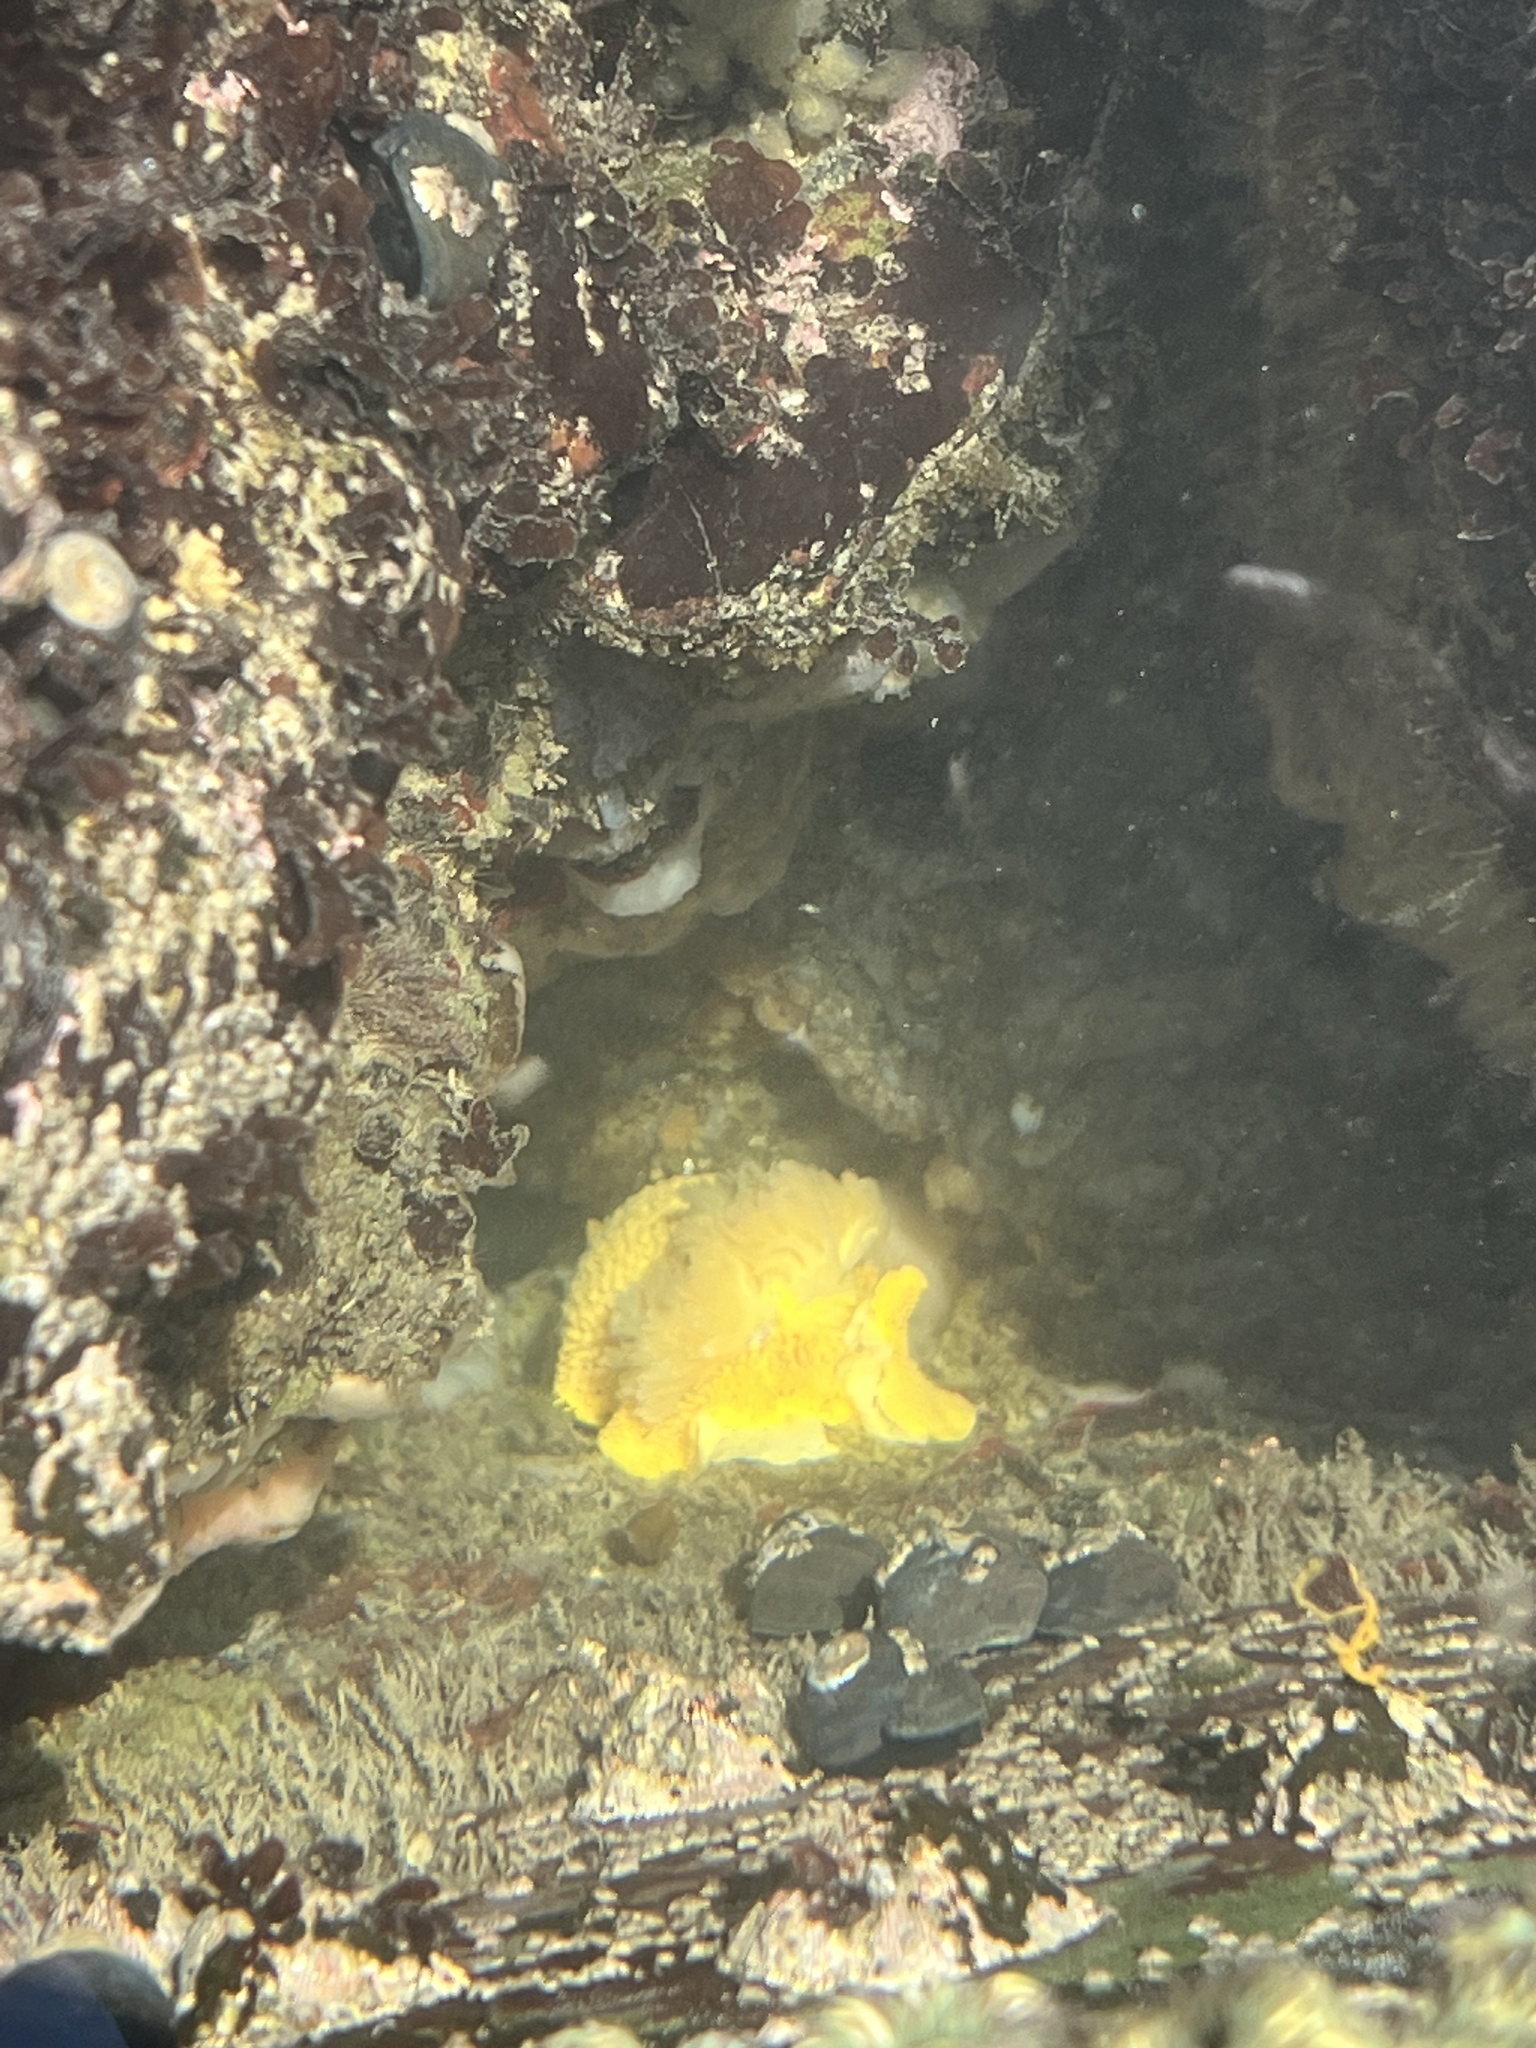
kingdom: Animalia
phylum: Mollusca
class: Gastropoda
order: Nudibranchia
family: Dorididae
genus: Doris
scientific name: Doris montereyensis
